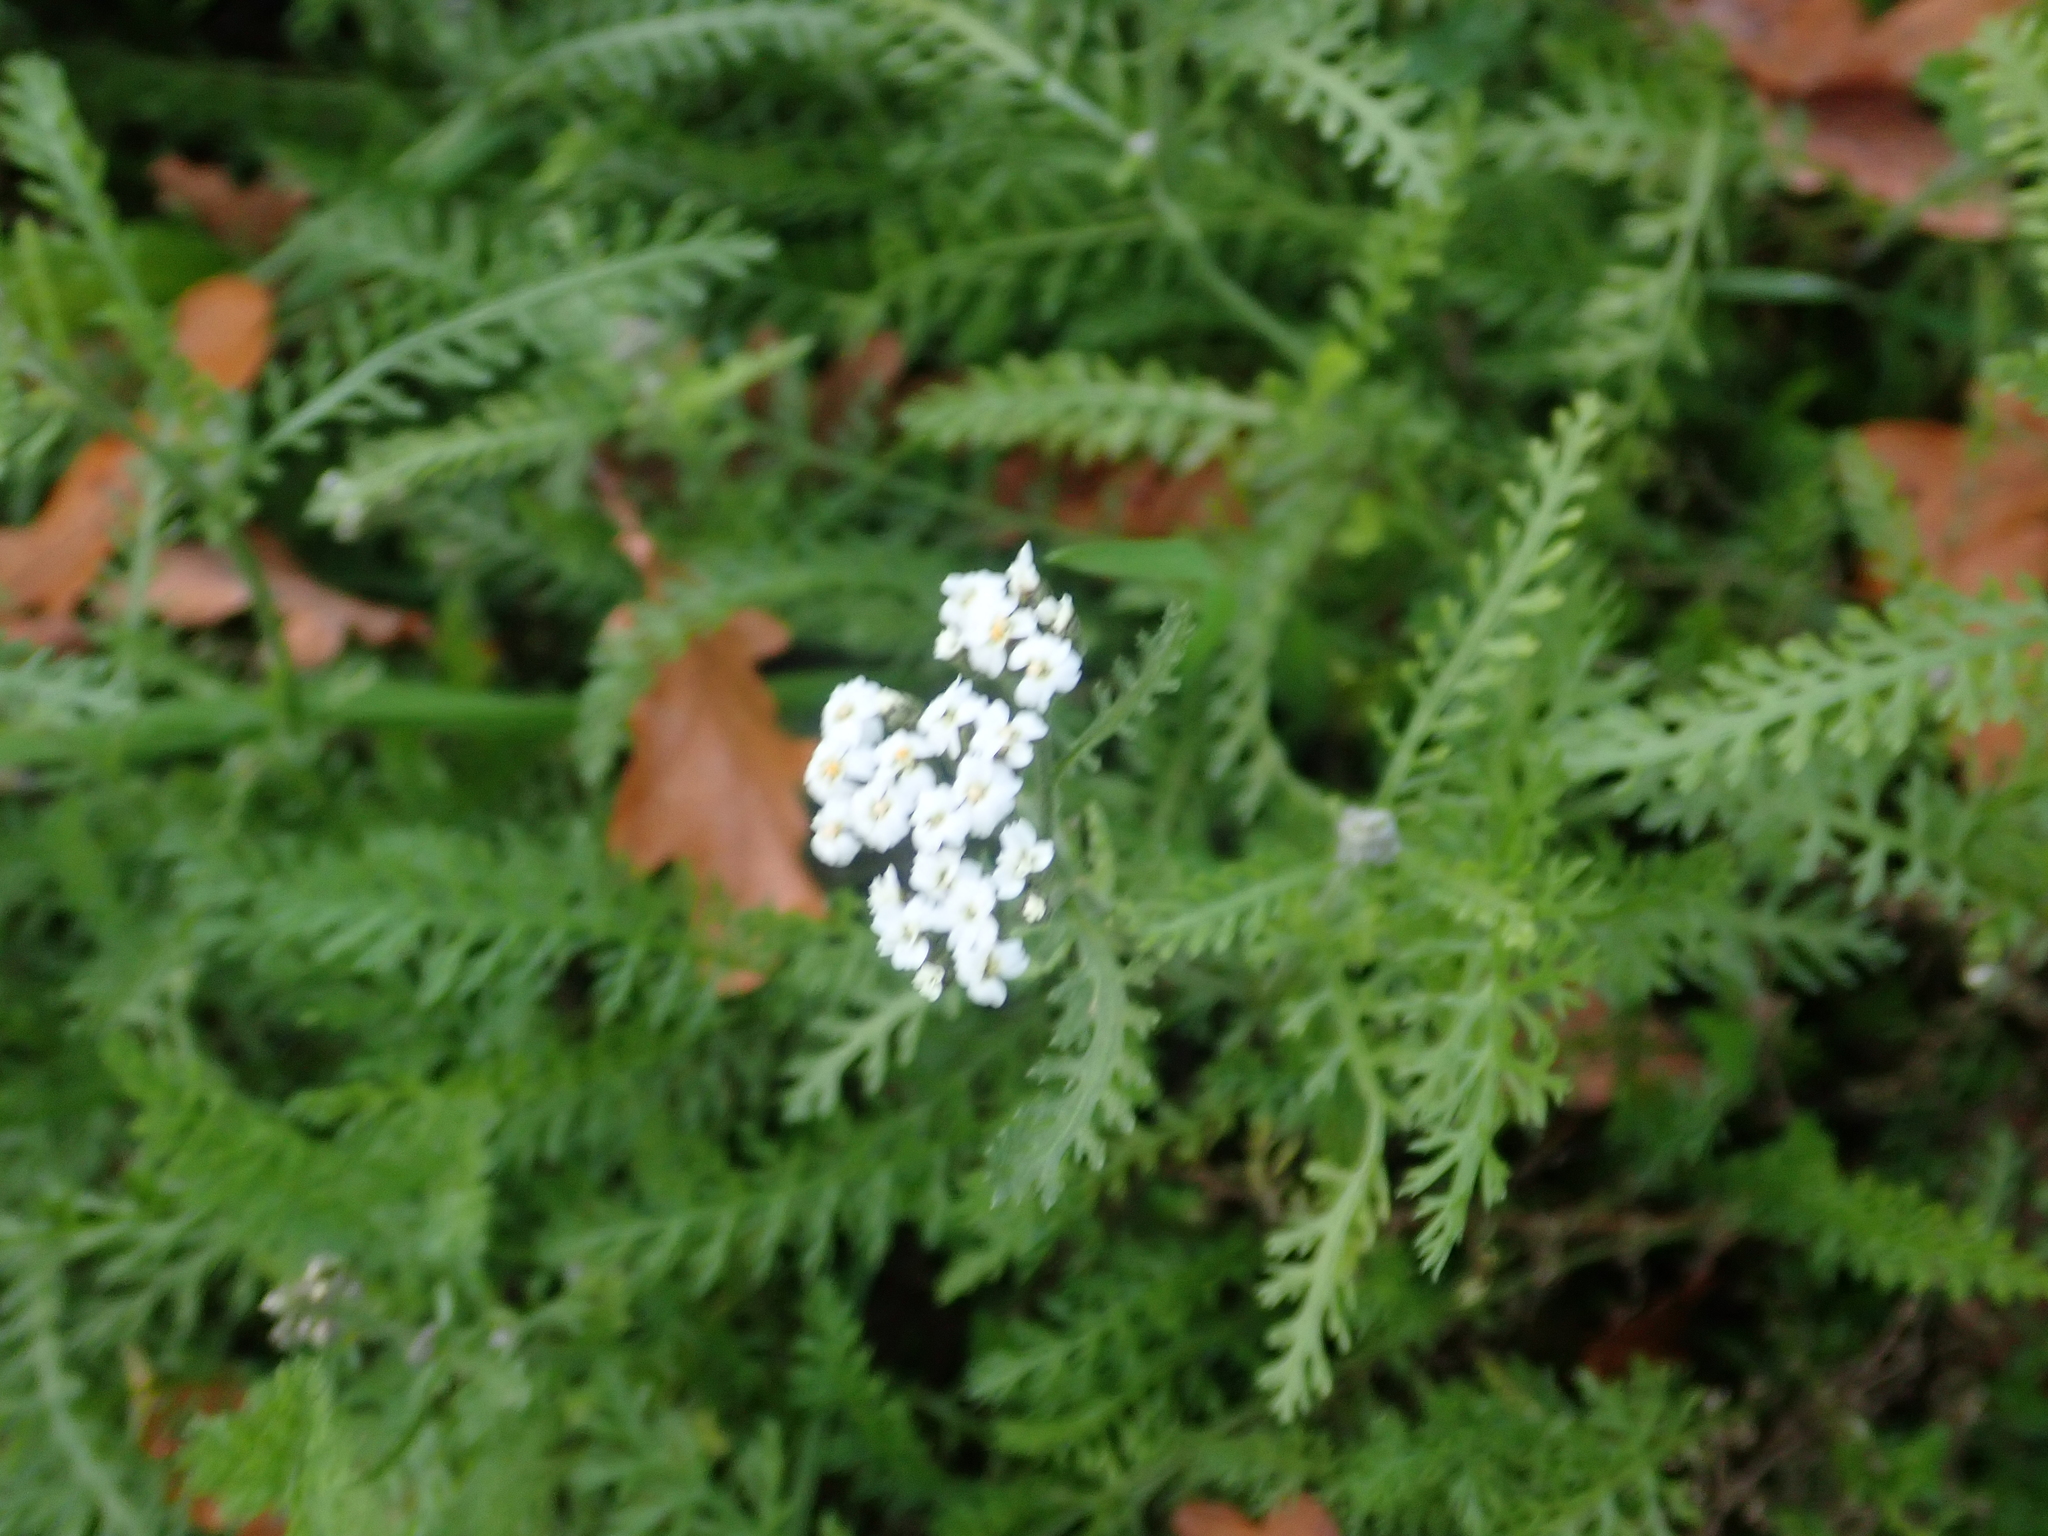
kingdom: Plantae
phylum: Tracheophyta
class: Magnoliopsida
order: Asterales
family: Asteraceae
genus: Achillea
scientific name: Achillea millefolium
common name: Yarrow
